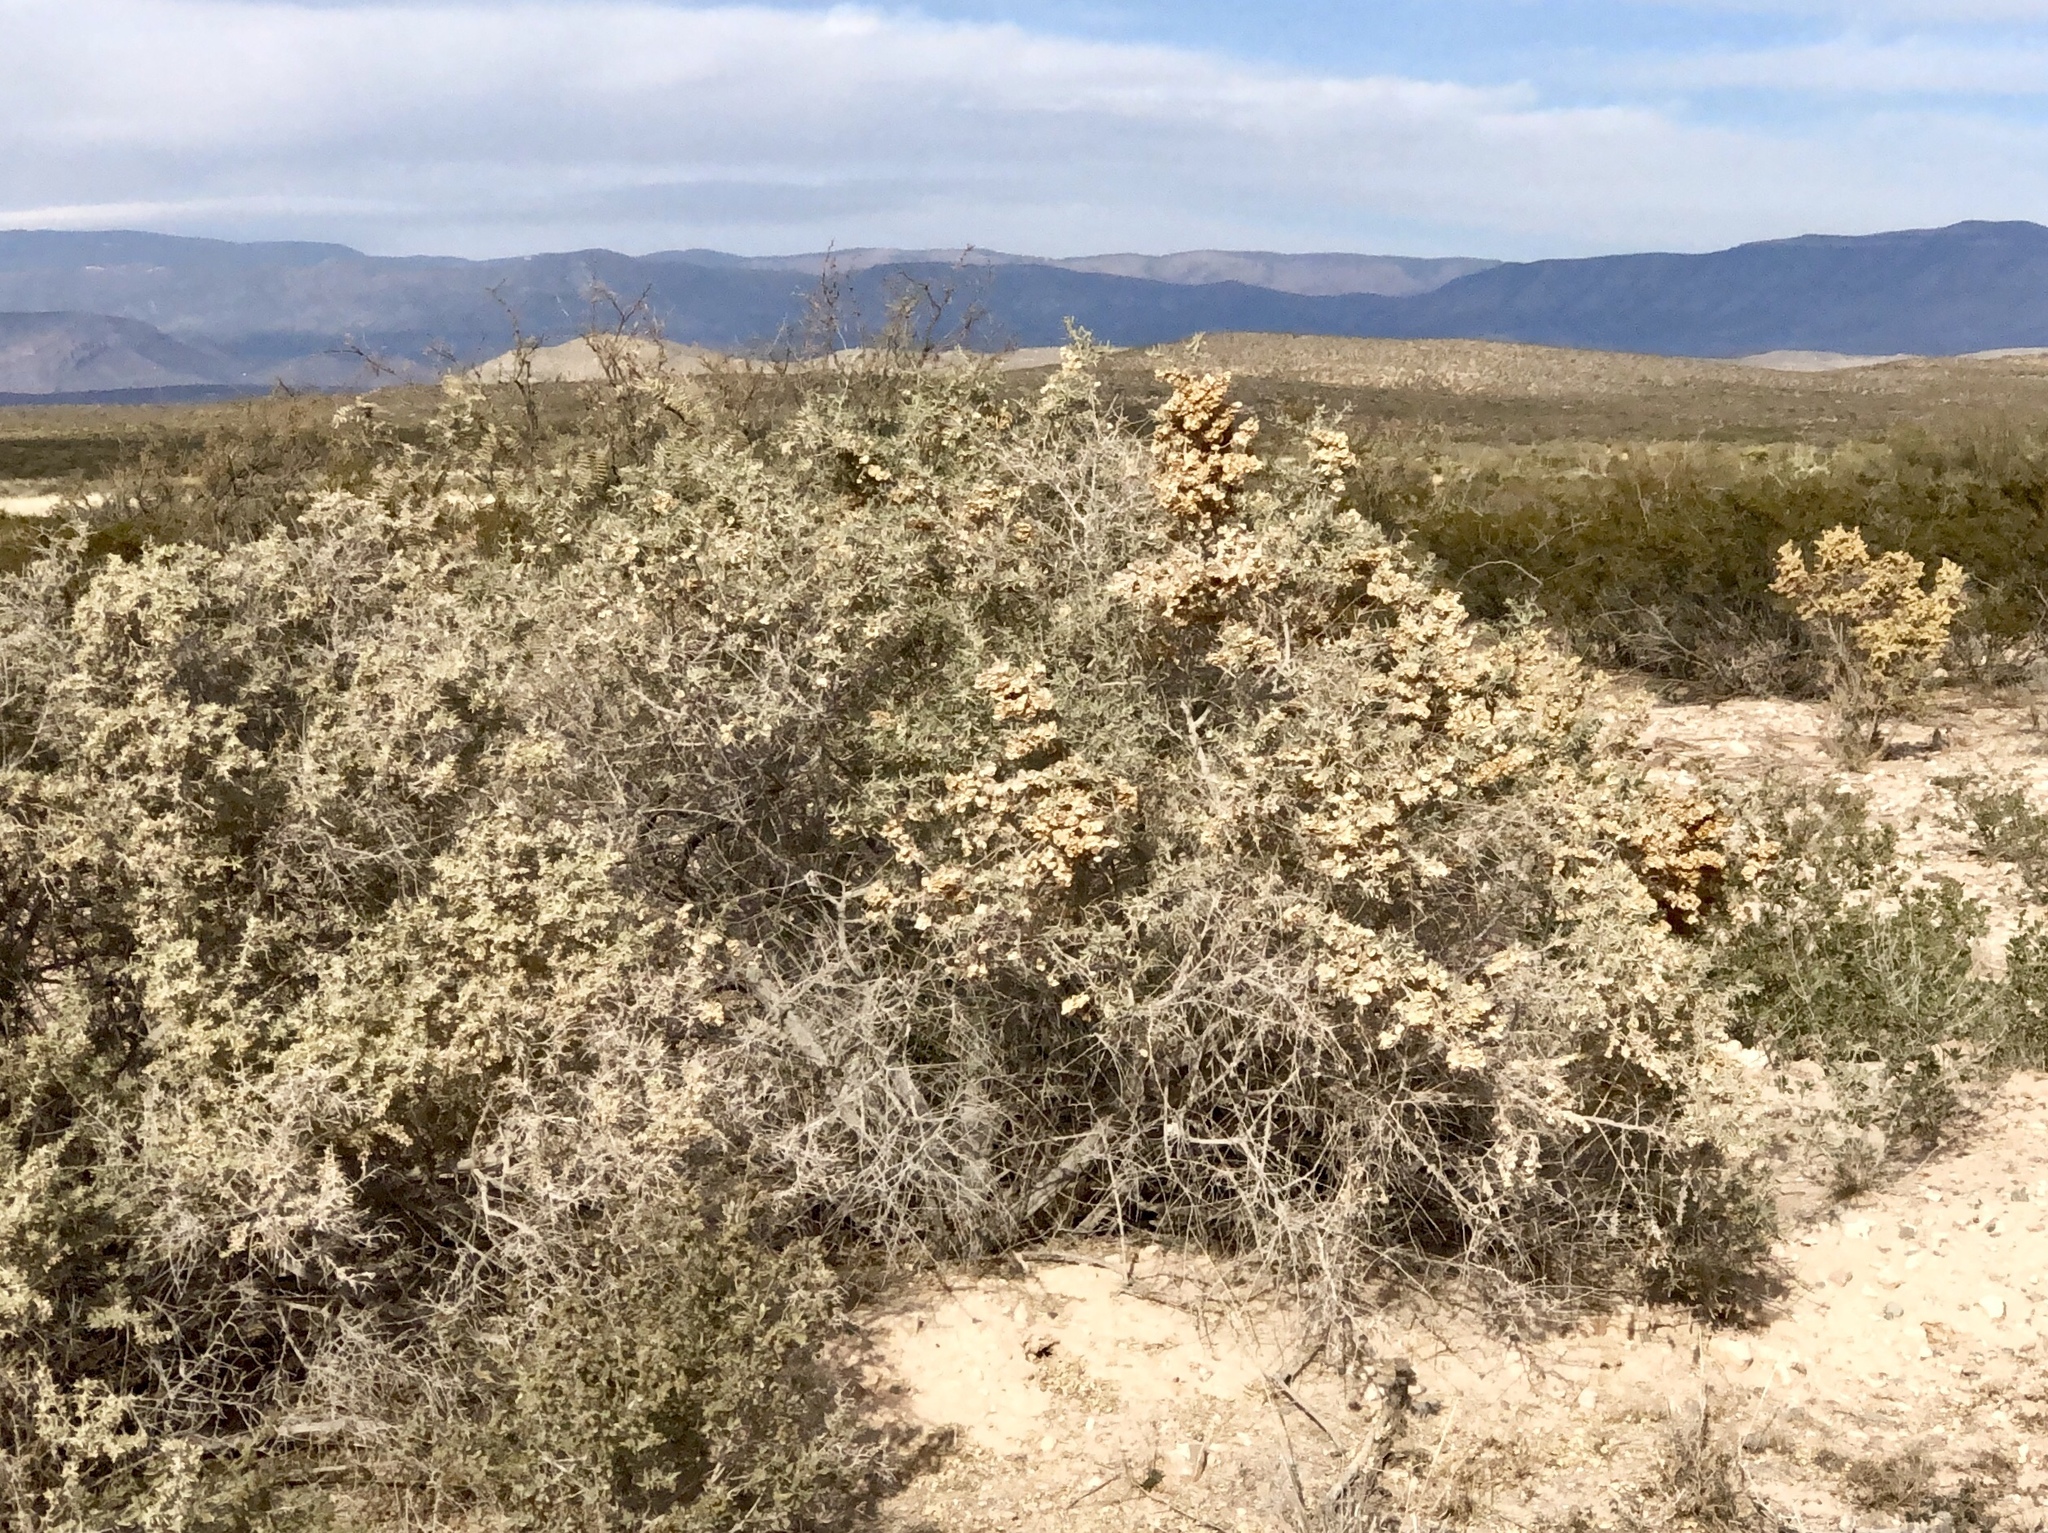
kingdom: Plantae
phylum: Tracheophyta
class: Magnoliopsida
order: Caryophyllales
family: Amaranthaceae
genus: Atriplex
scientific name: Atriplex canescens
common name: Four-wing saltbush
